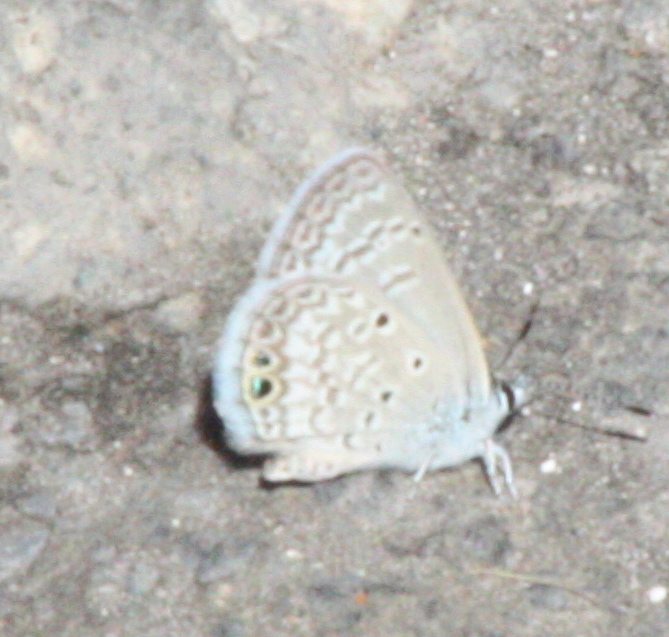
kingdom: Animalia
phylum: Arthropoda
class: Insecta
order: Lepidoptera
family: Lycaenidae
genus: Hemiargus
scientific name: Hemiargus ceraunus
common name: Ceraunus blue
